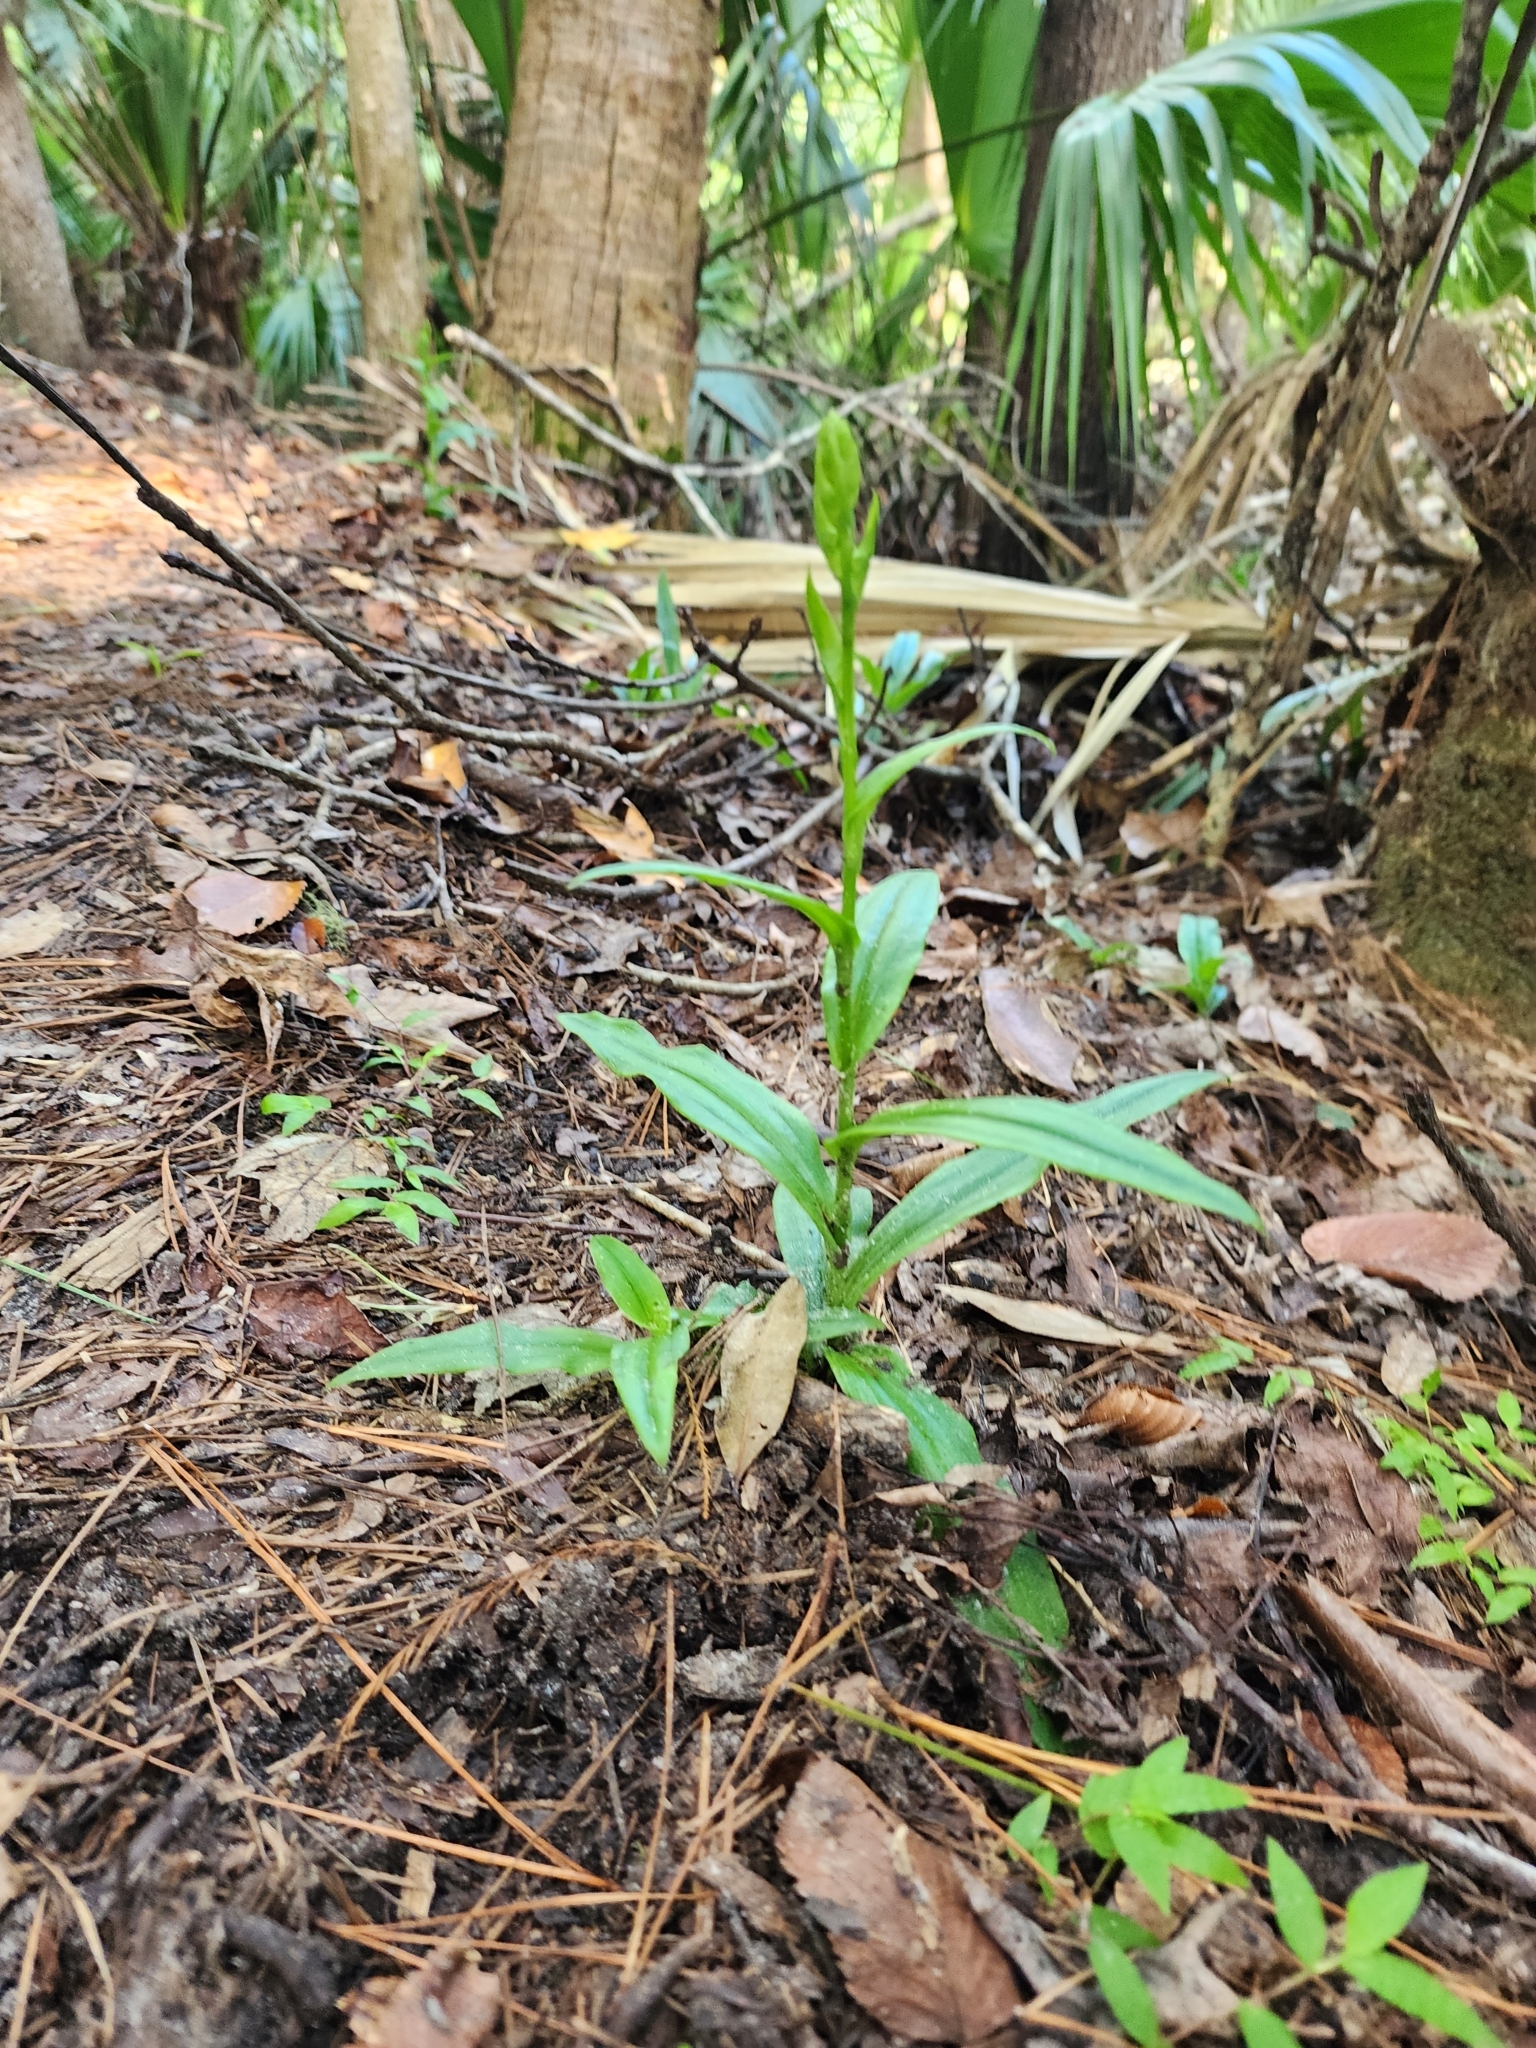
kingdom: Plantae
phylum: Tracheophyta
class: Liliopsida
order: Asparagales
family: Orchidaceae
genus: Habenaria
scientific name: Habenaria floribunda
